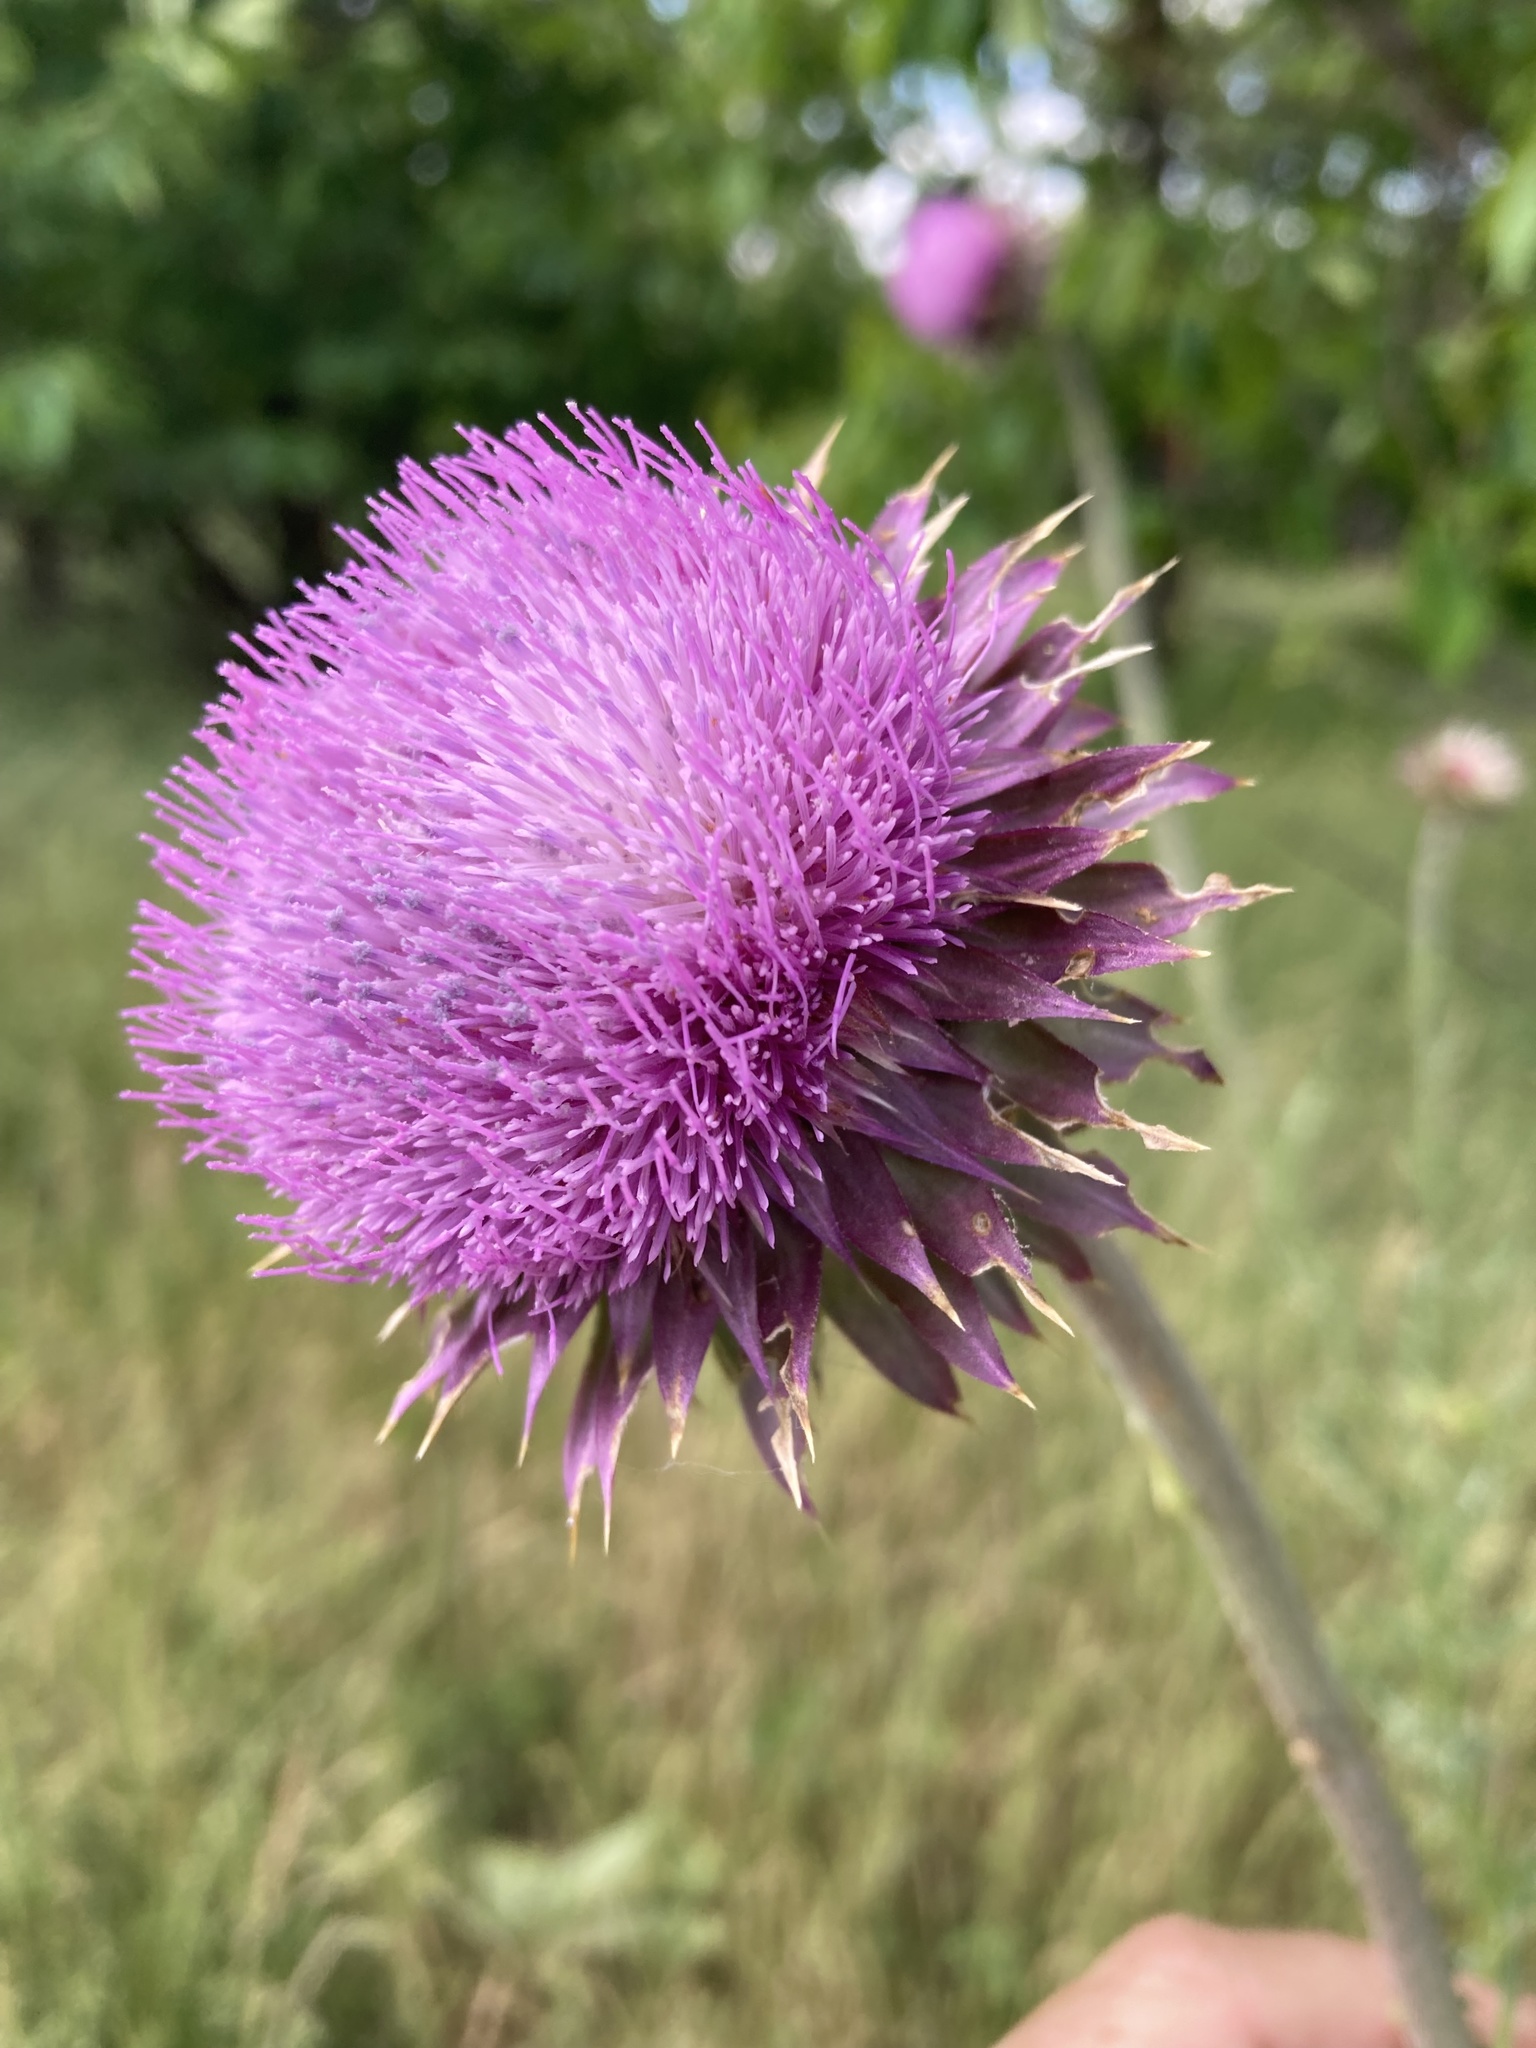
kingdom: Plantae
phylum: Tracheophyta
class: Magnoliopsida
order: Asterales
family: Asteraceae
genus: Carduus
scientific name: Carduus nutans
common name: Musk thistle
